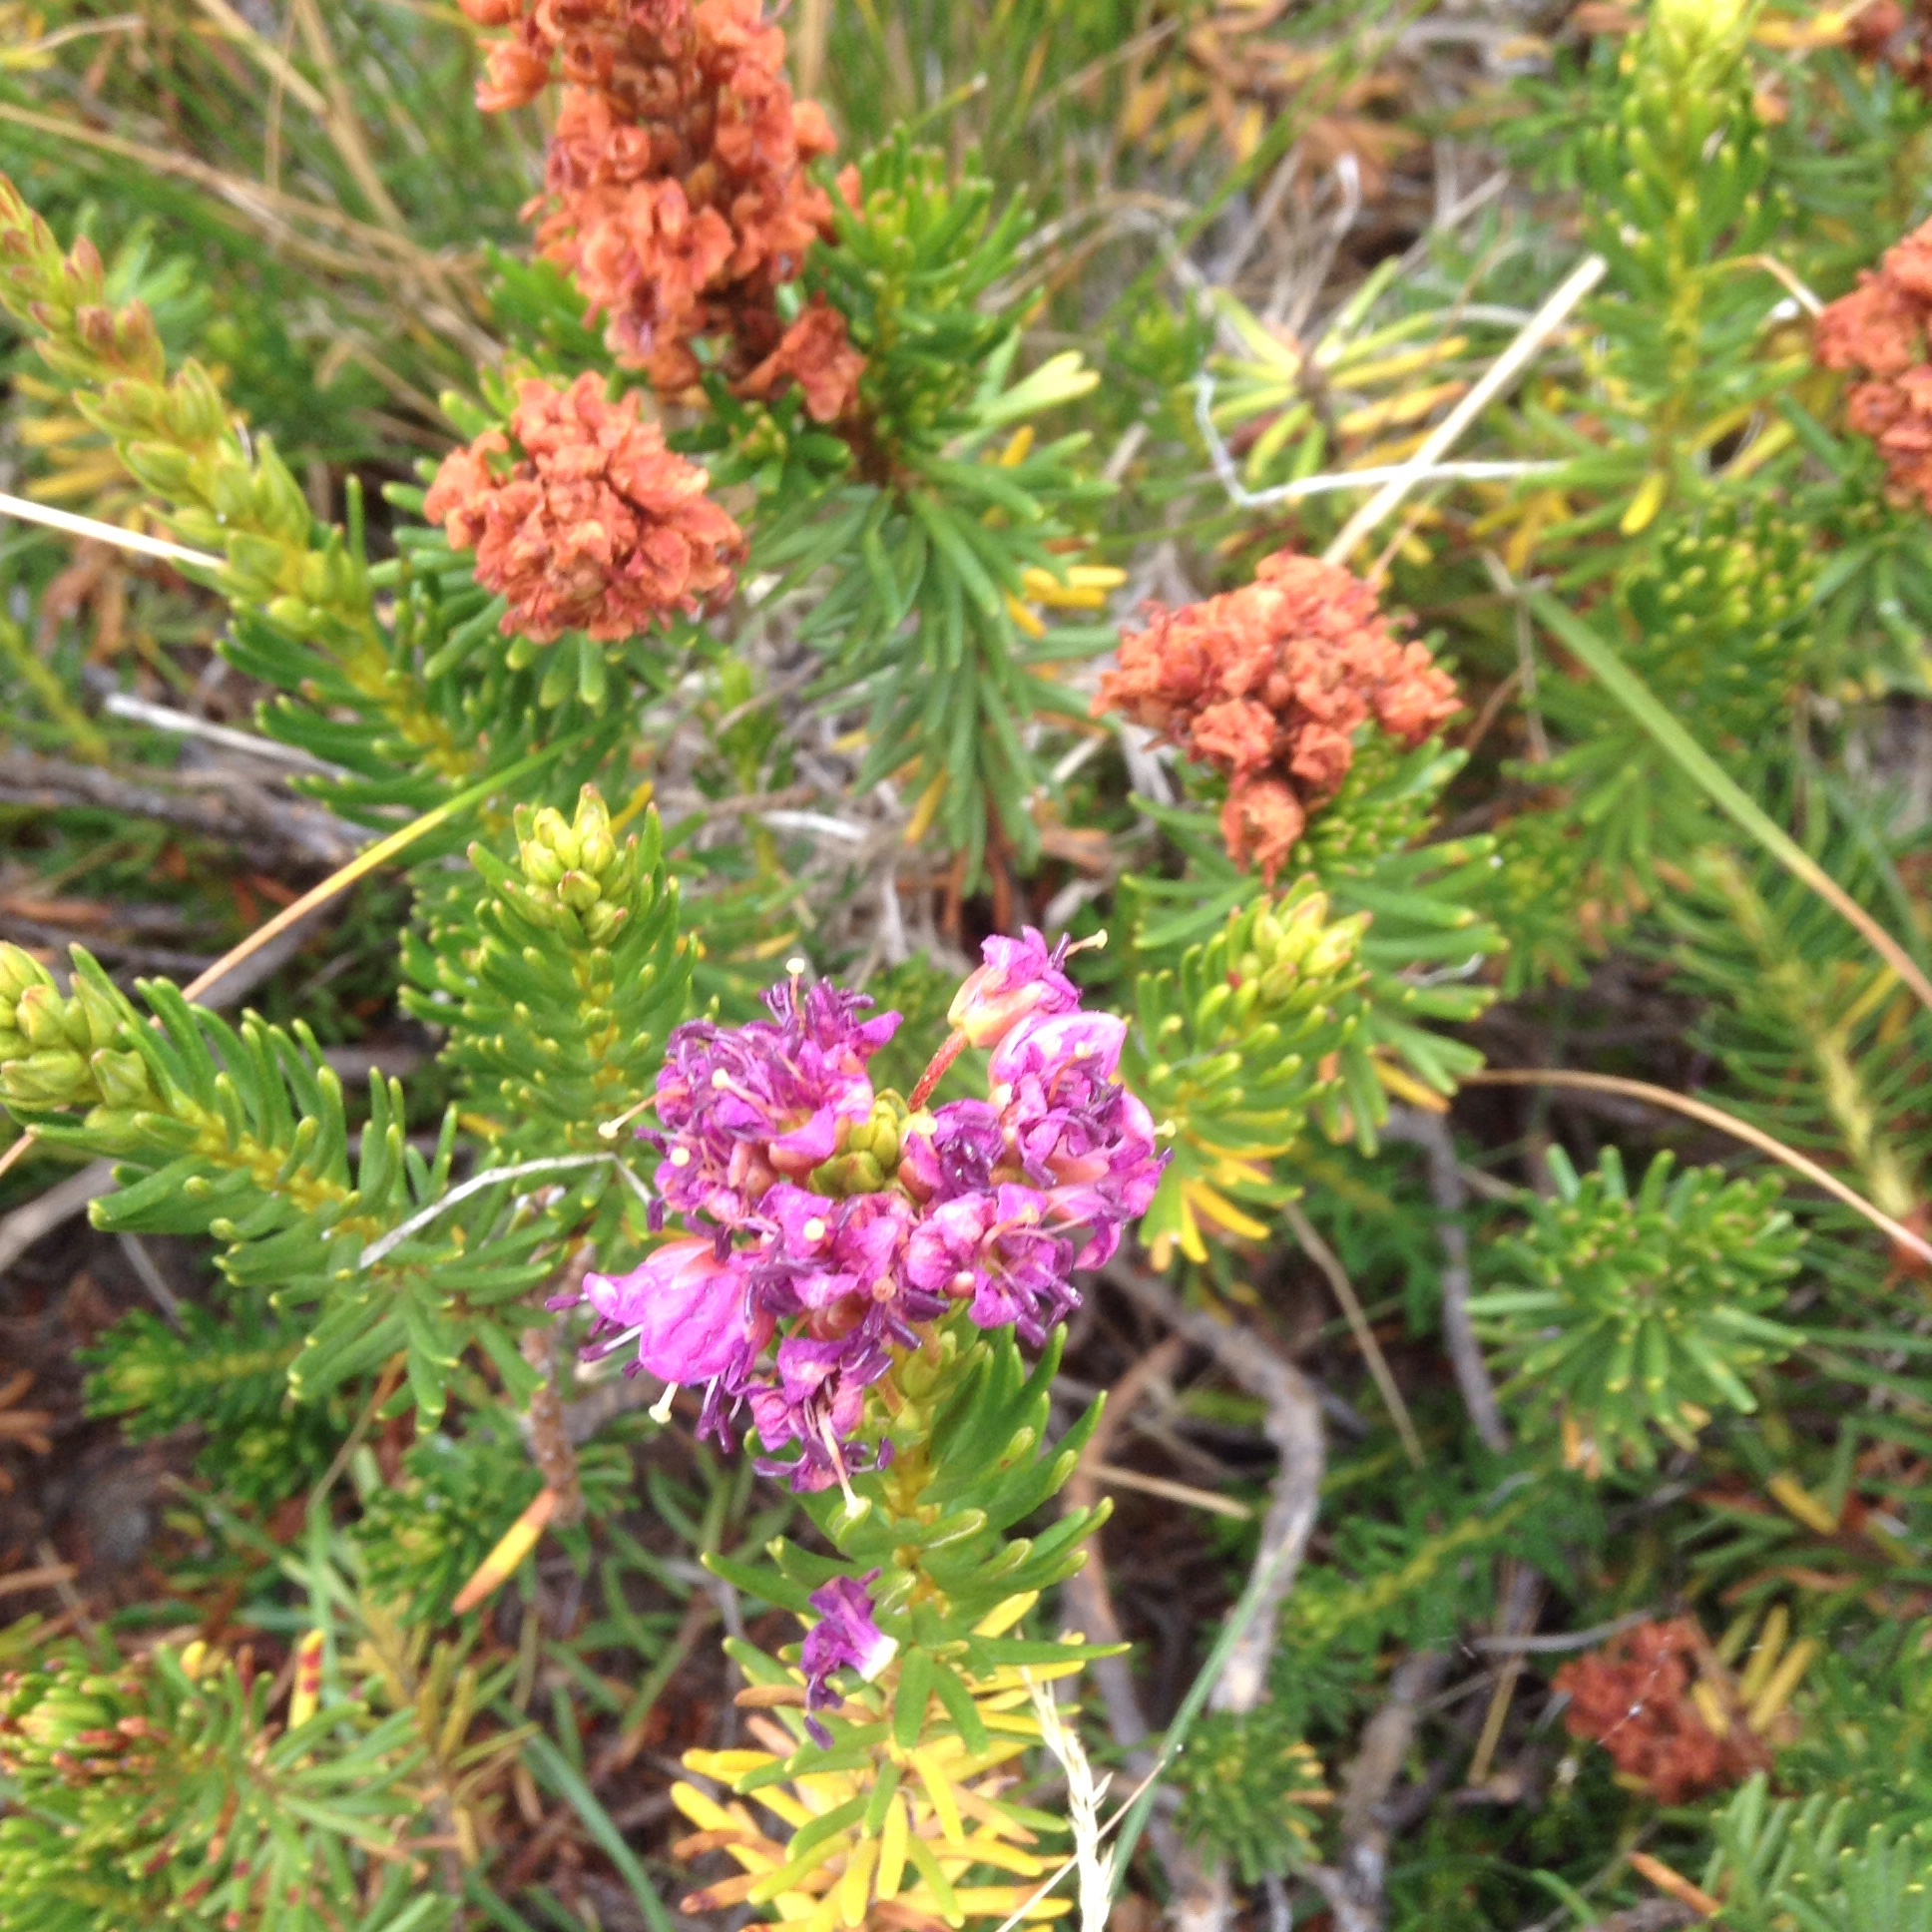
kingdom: Plantae
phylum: Tracheophyta
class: Magnoliopsida
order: Ericales
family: Ericaceae
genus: Phyllodoce
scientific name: Phyllodoce breweri
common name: Brewer's mountain-heather
